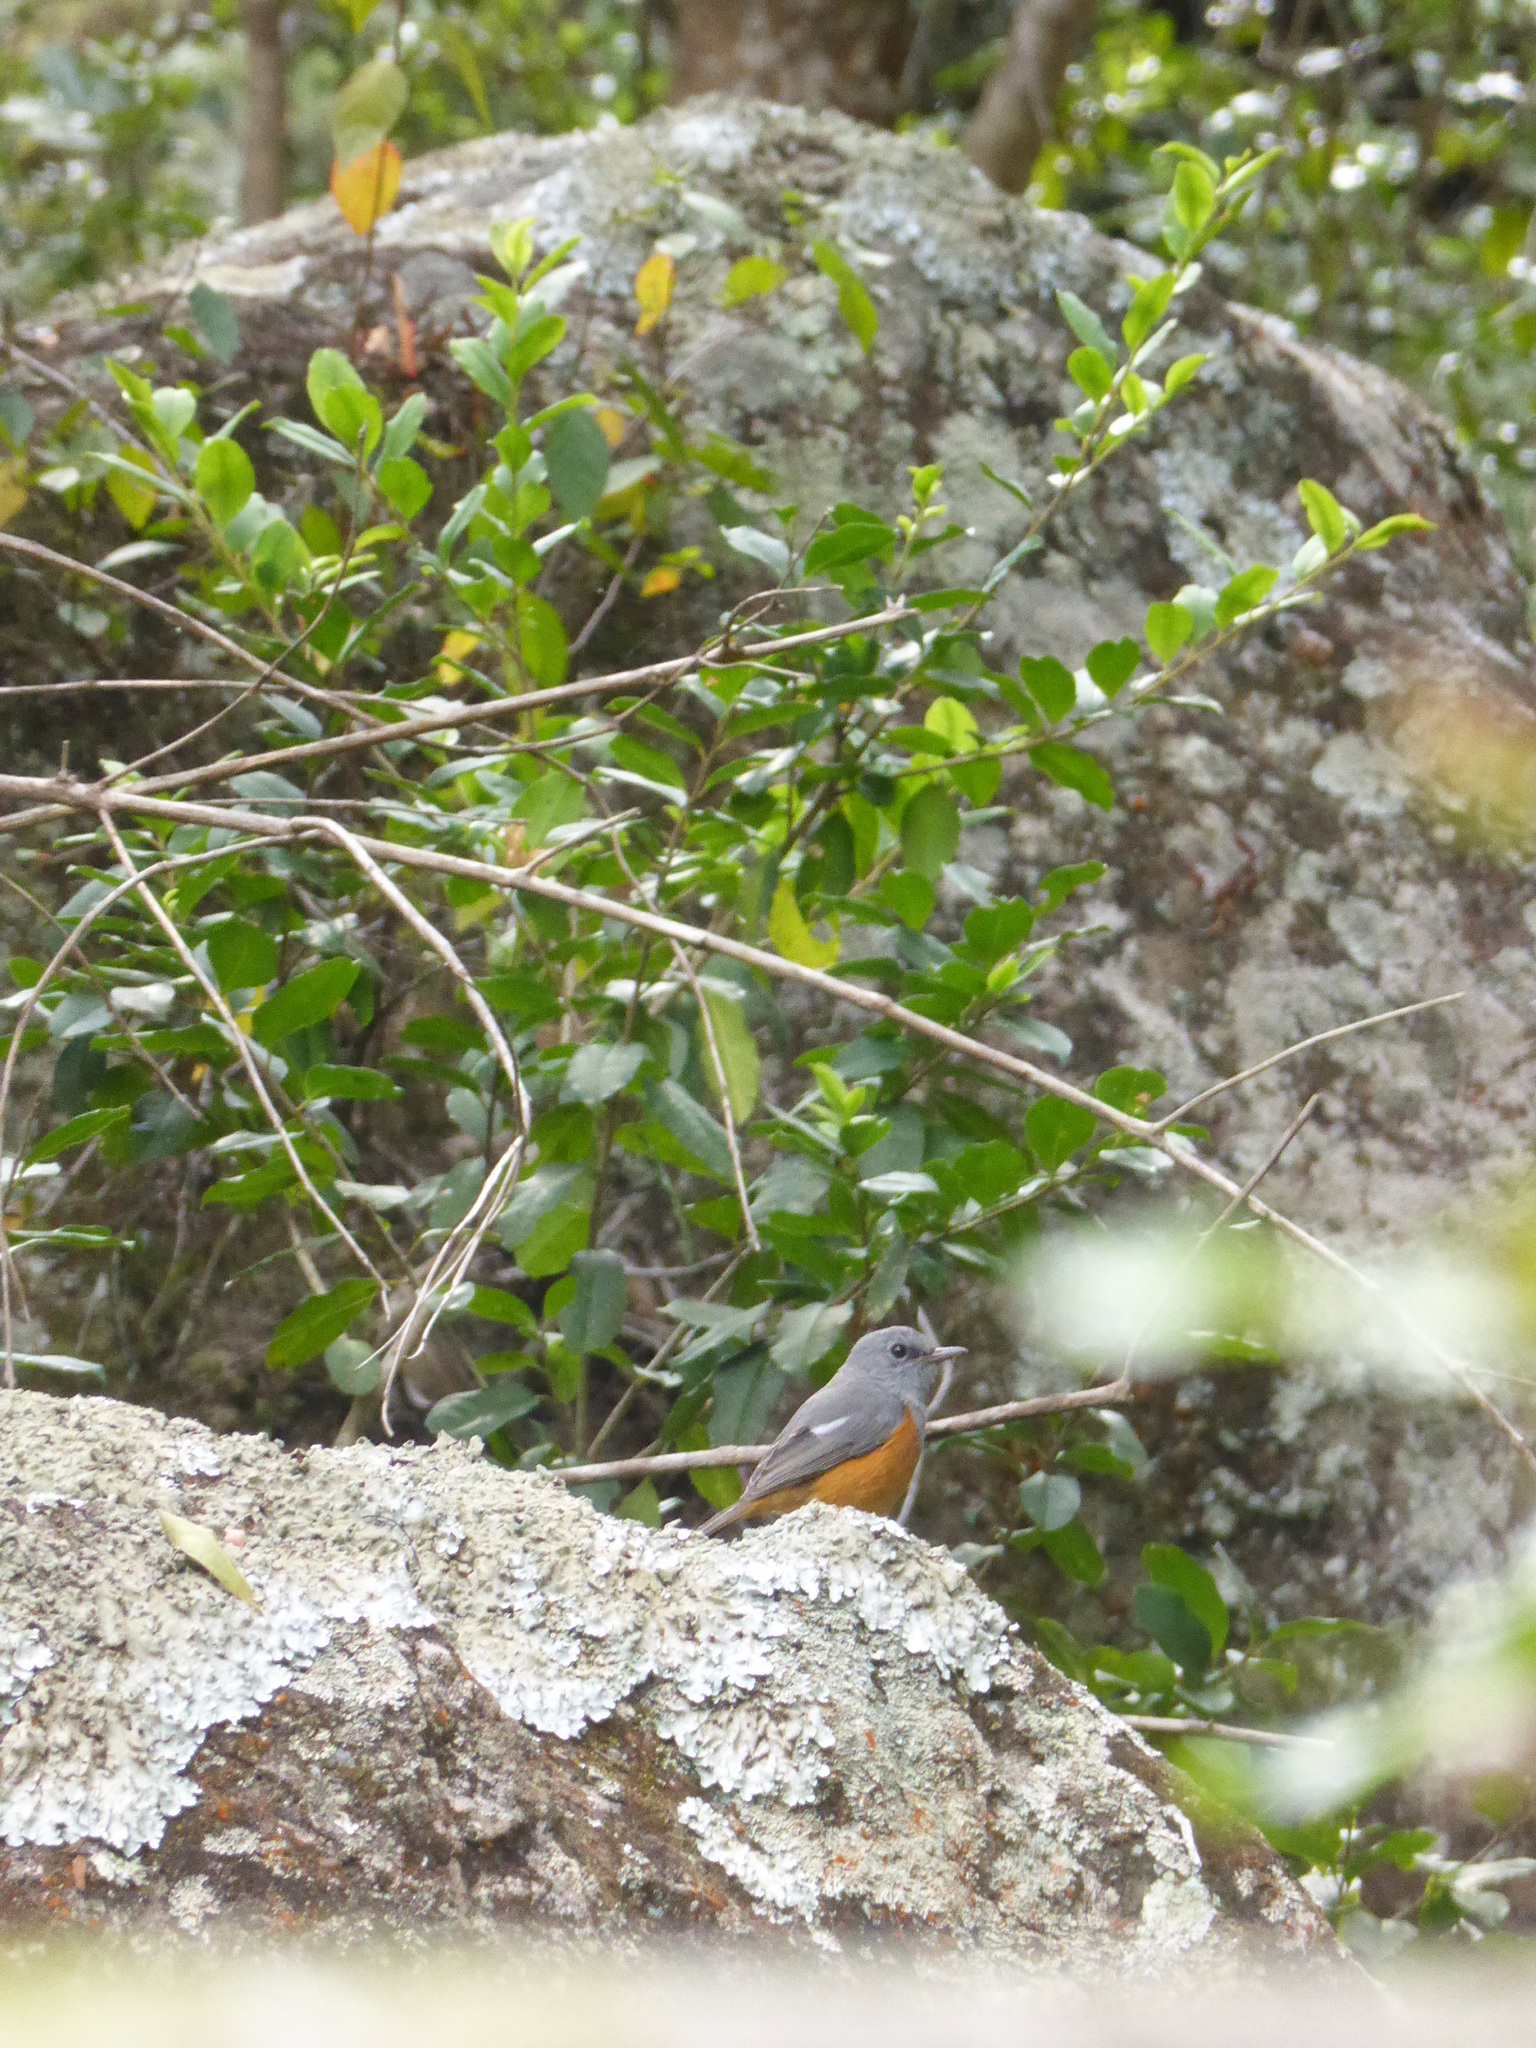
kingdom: Animalia
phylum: Chordata
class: Aves
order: Passeriformes
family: Muscicapidae
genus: Monticola
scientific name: Monticola sharpei
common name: Forest rock-thrush
